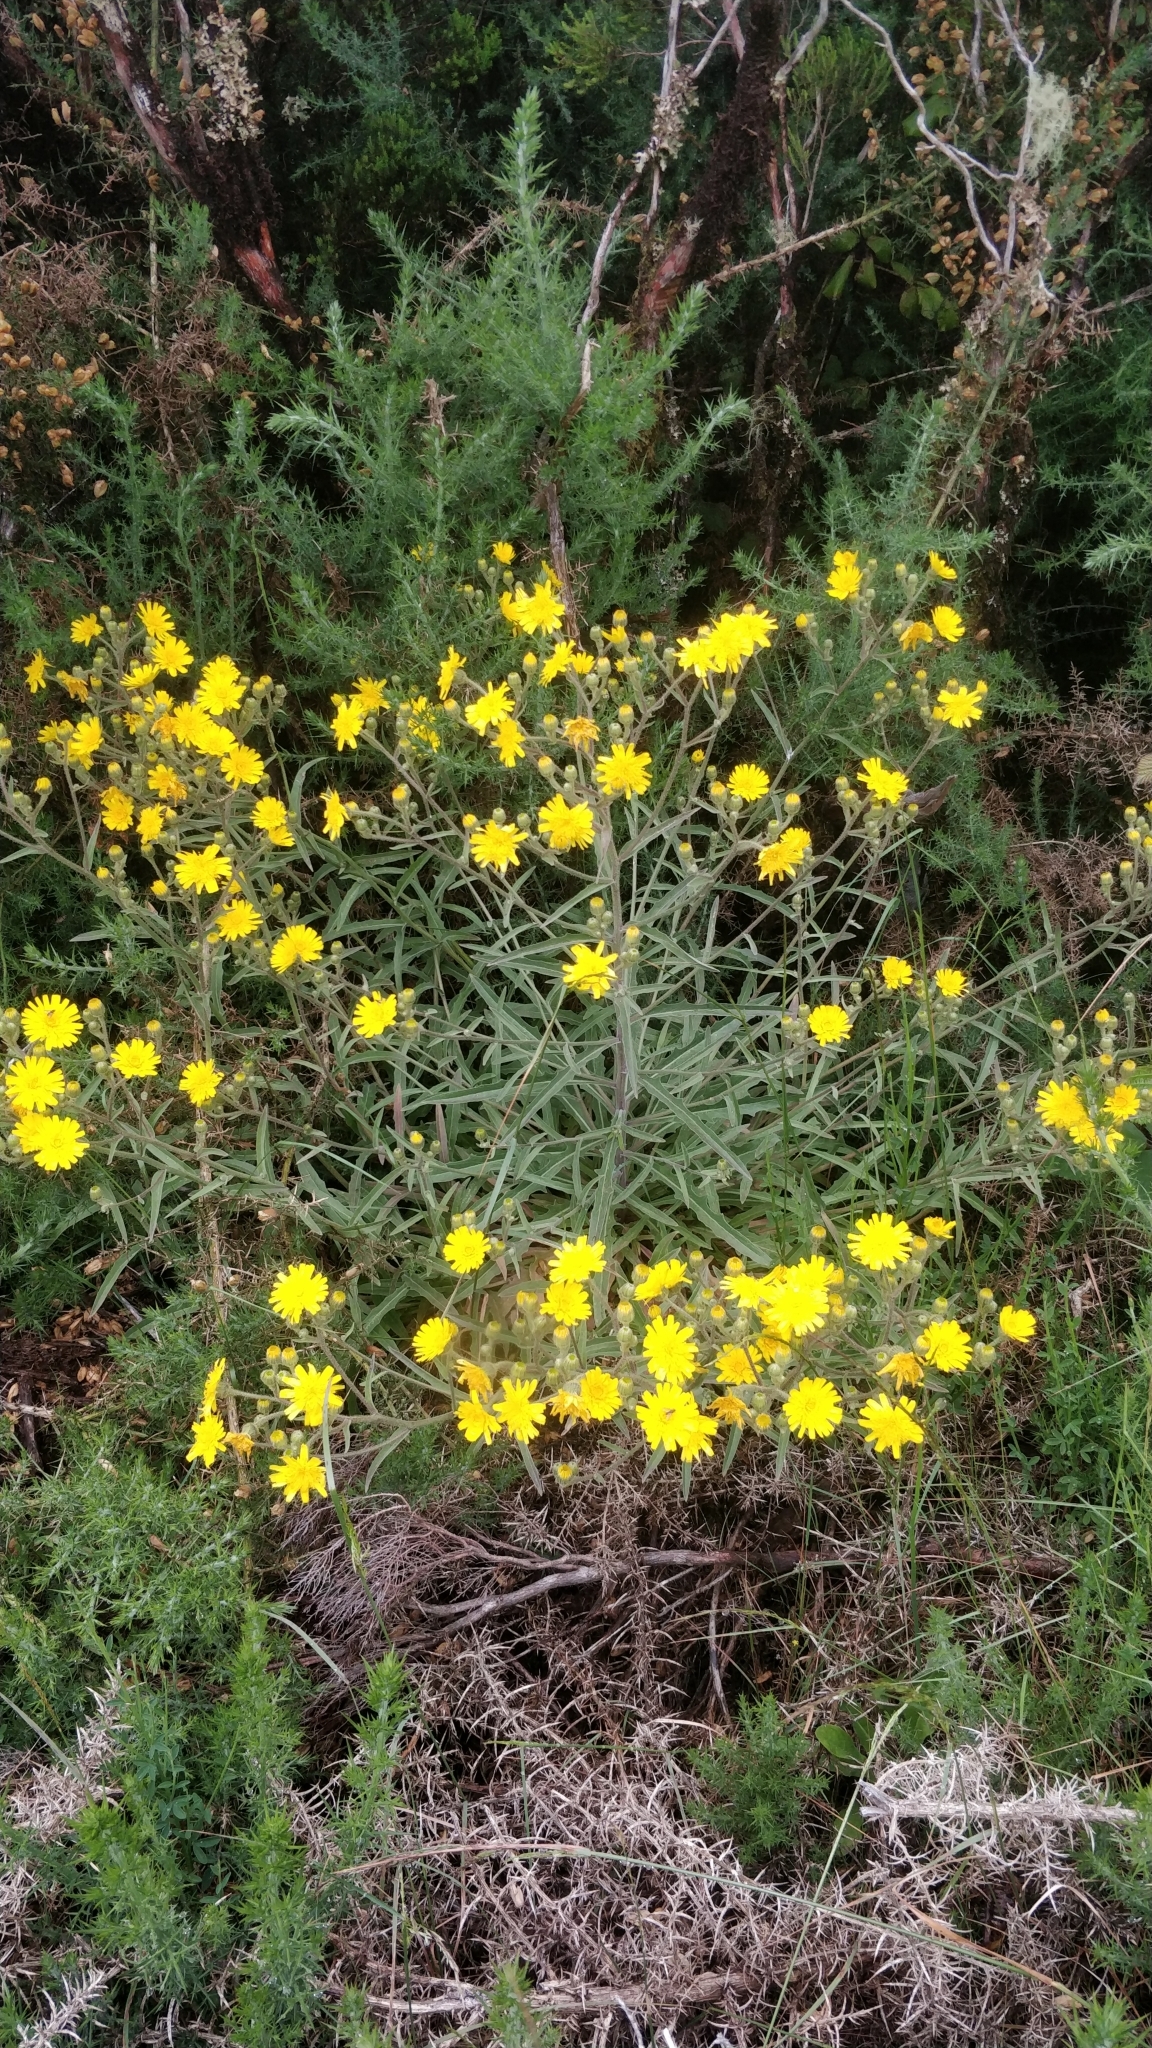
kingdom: Plantae
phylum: Tracheophyta
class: Magnoliopsida
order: Asterales
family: Asteraceae
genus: Andryala
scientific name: Andryala glandulosa
